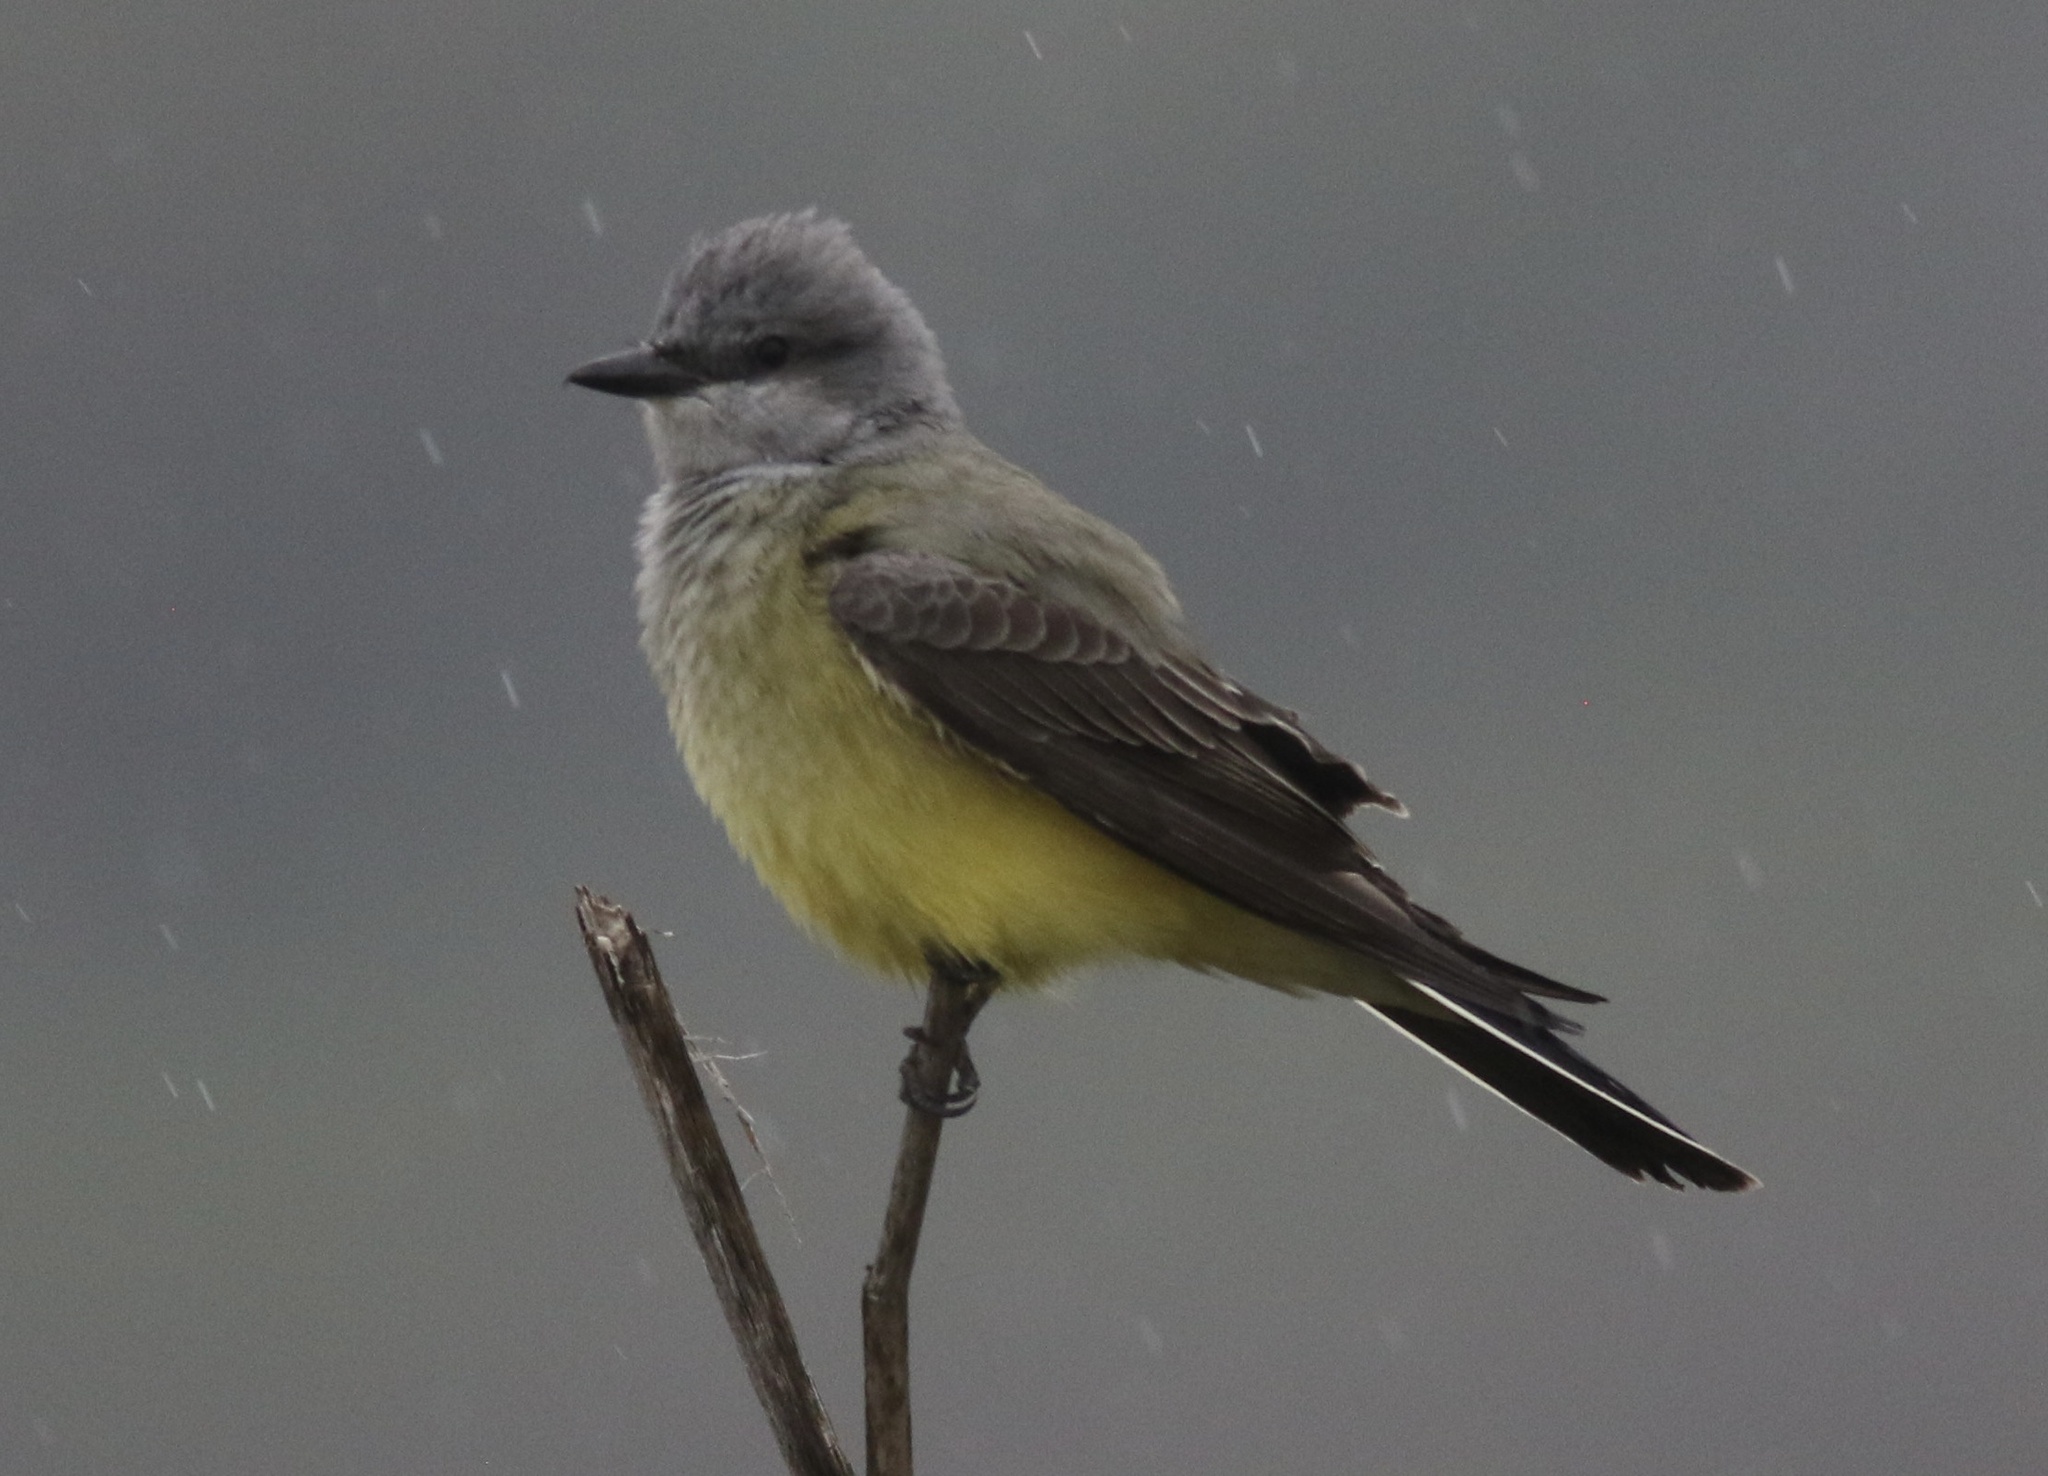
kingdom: Animalia
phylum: Chordata
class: Aves
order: Passeriformes
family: Tyrannidae
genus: Tyrannus
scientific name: Tyrannus verticalis
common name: Western kingbird
